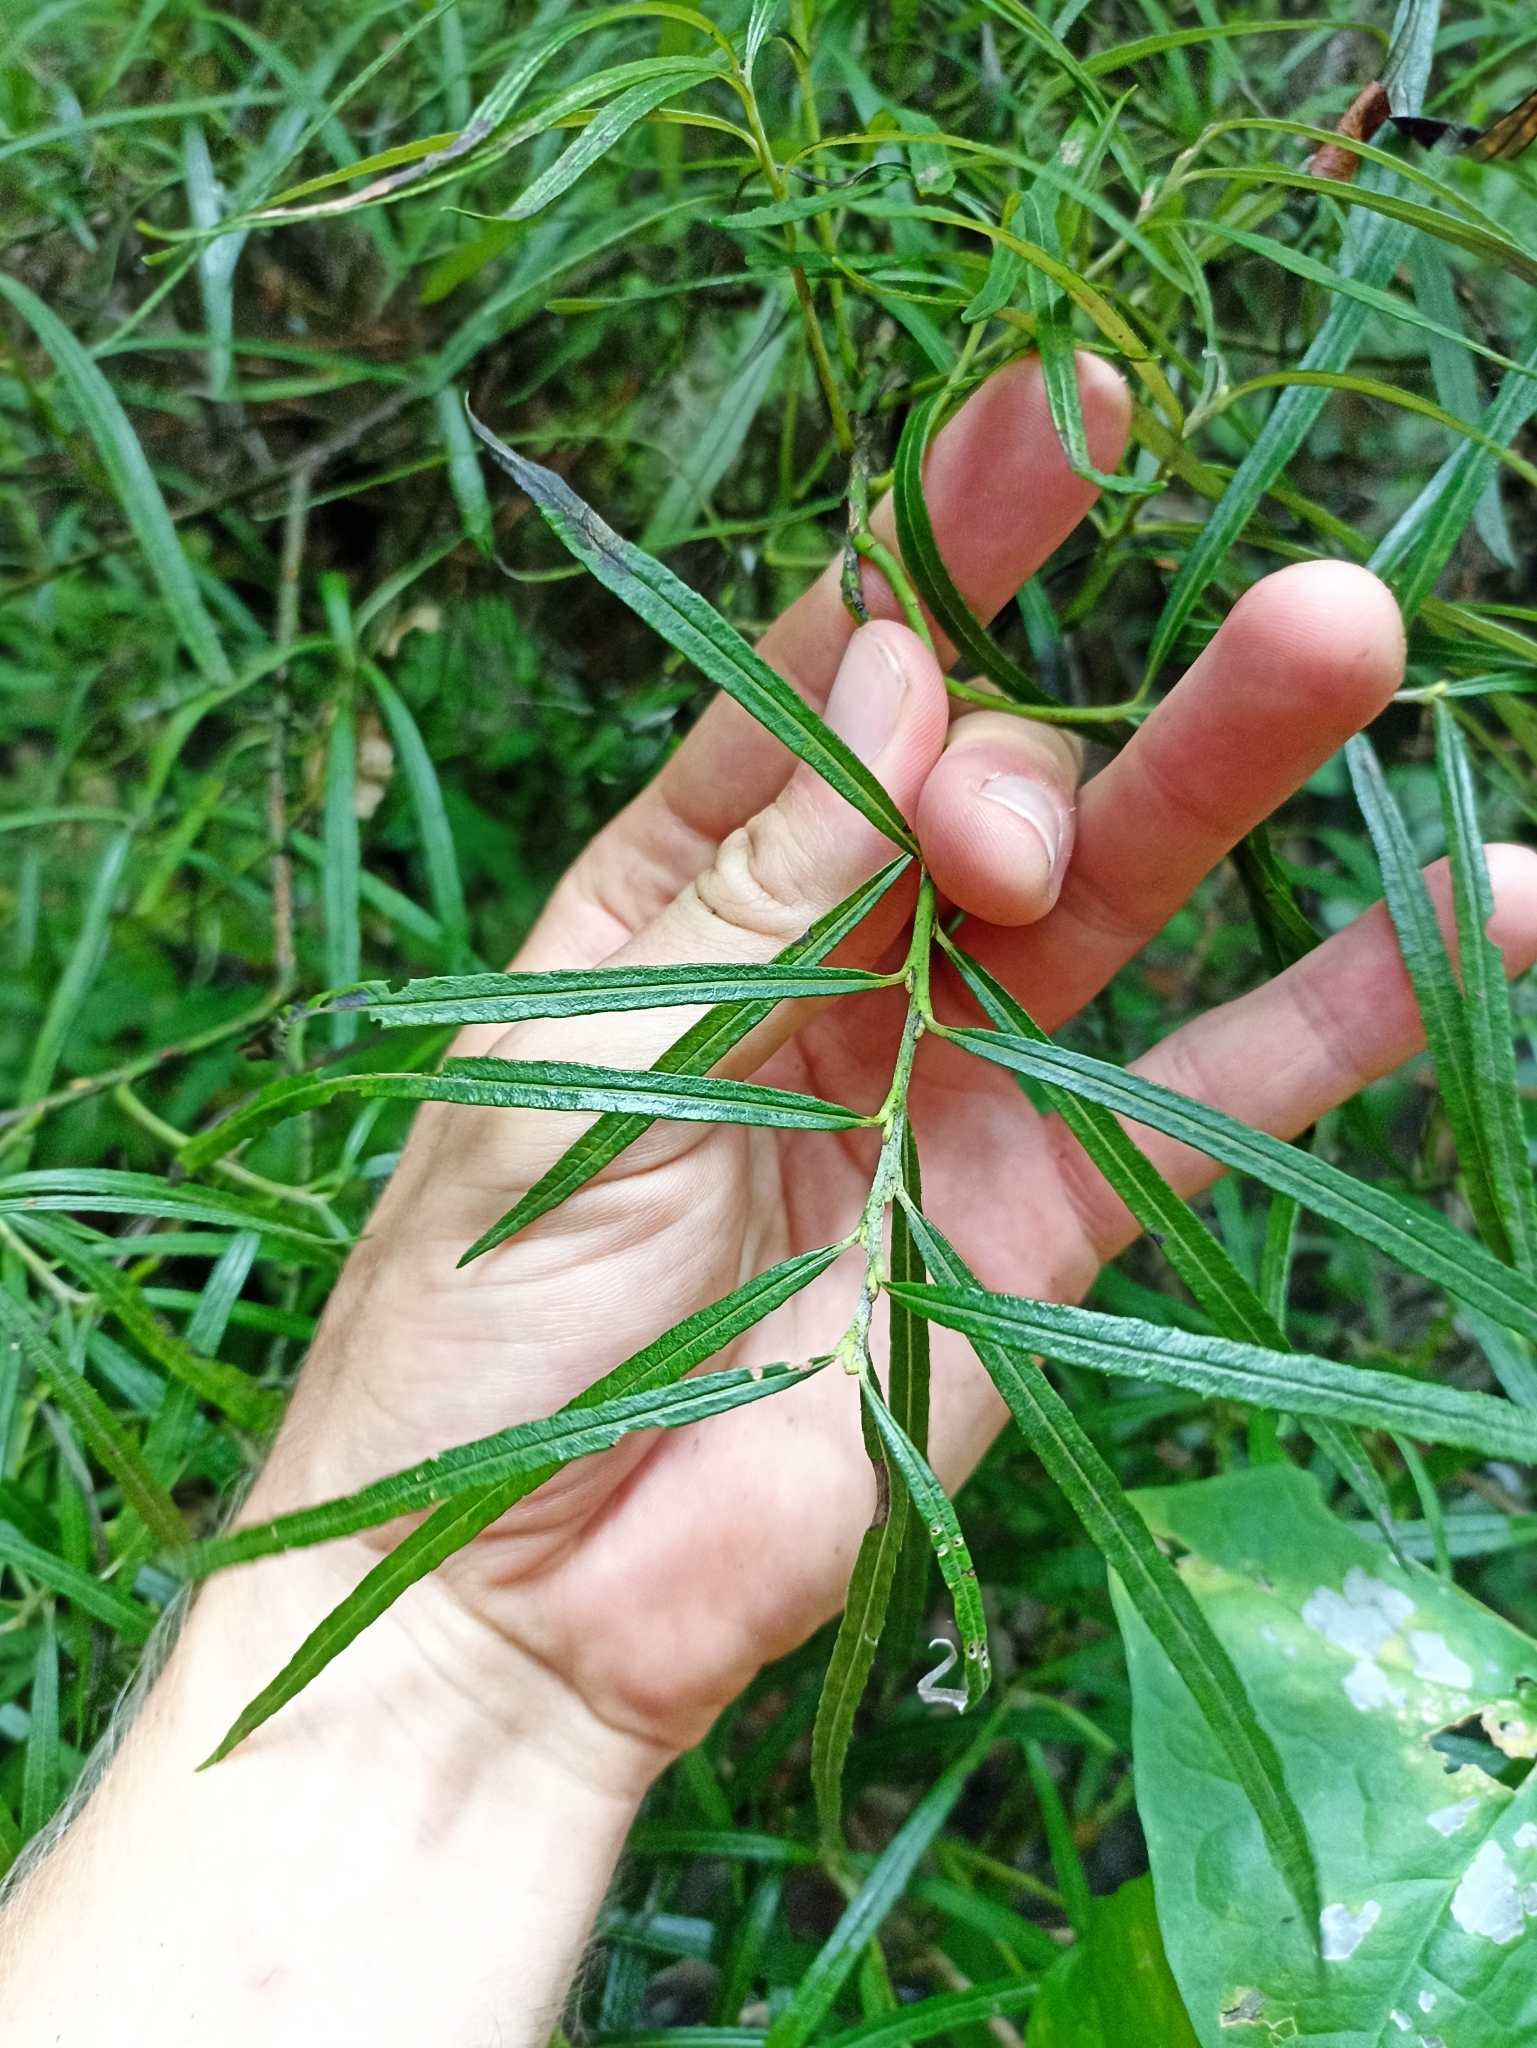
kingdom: Plantae
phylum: Tracheophyta
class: Magnoliopsida
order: Malpighiales
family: Salicaceae
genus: Salix
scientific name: Salix eleagnos
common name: Elaeagnus willow
